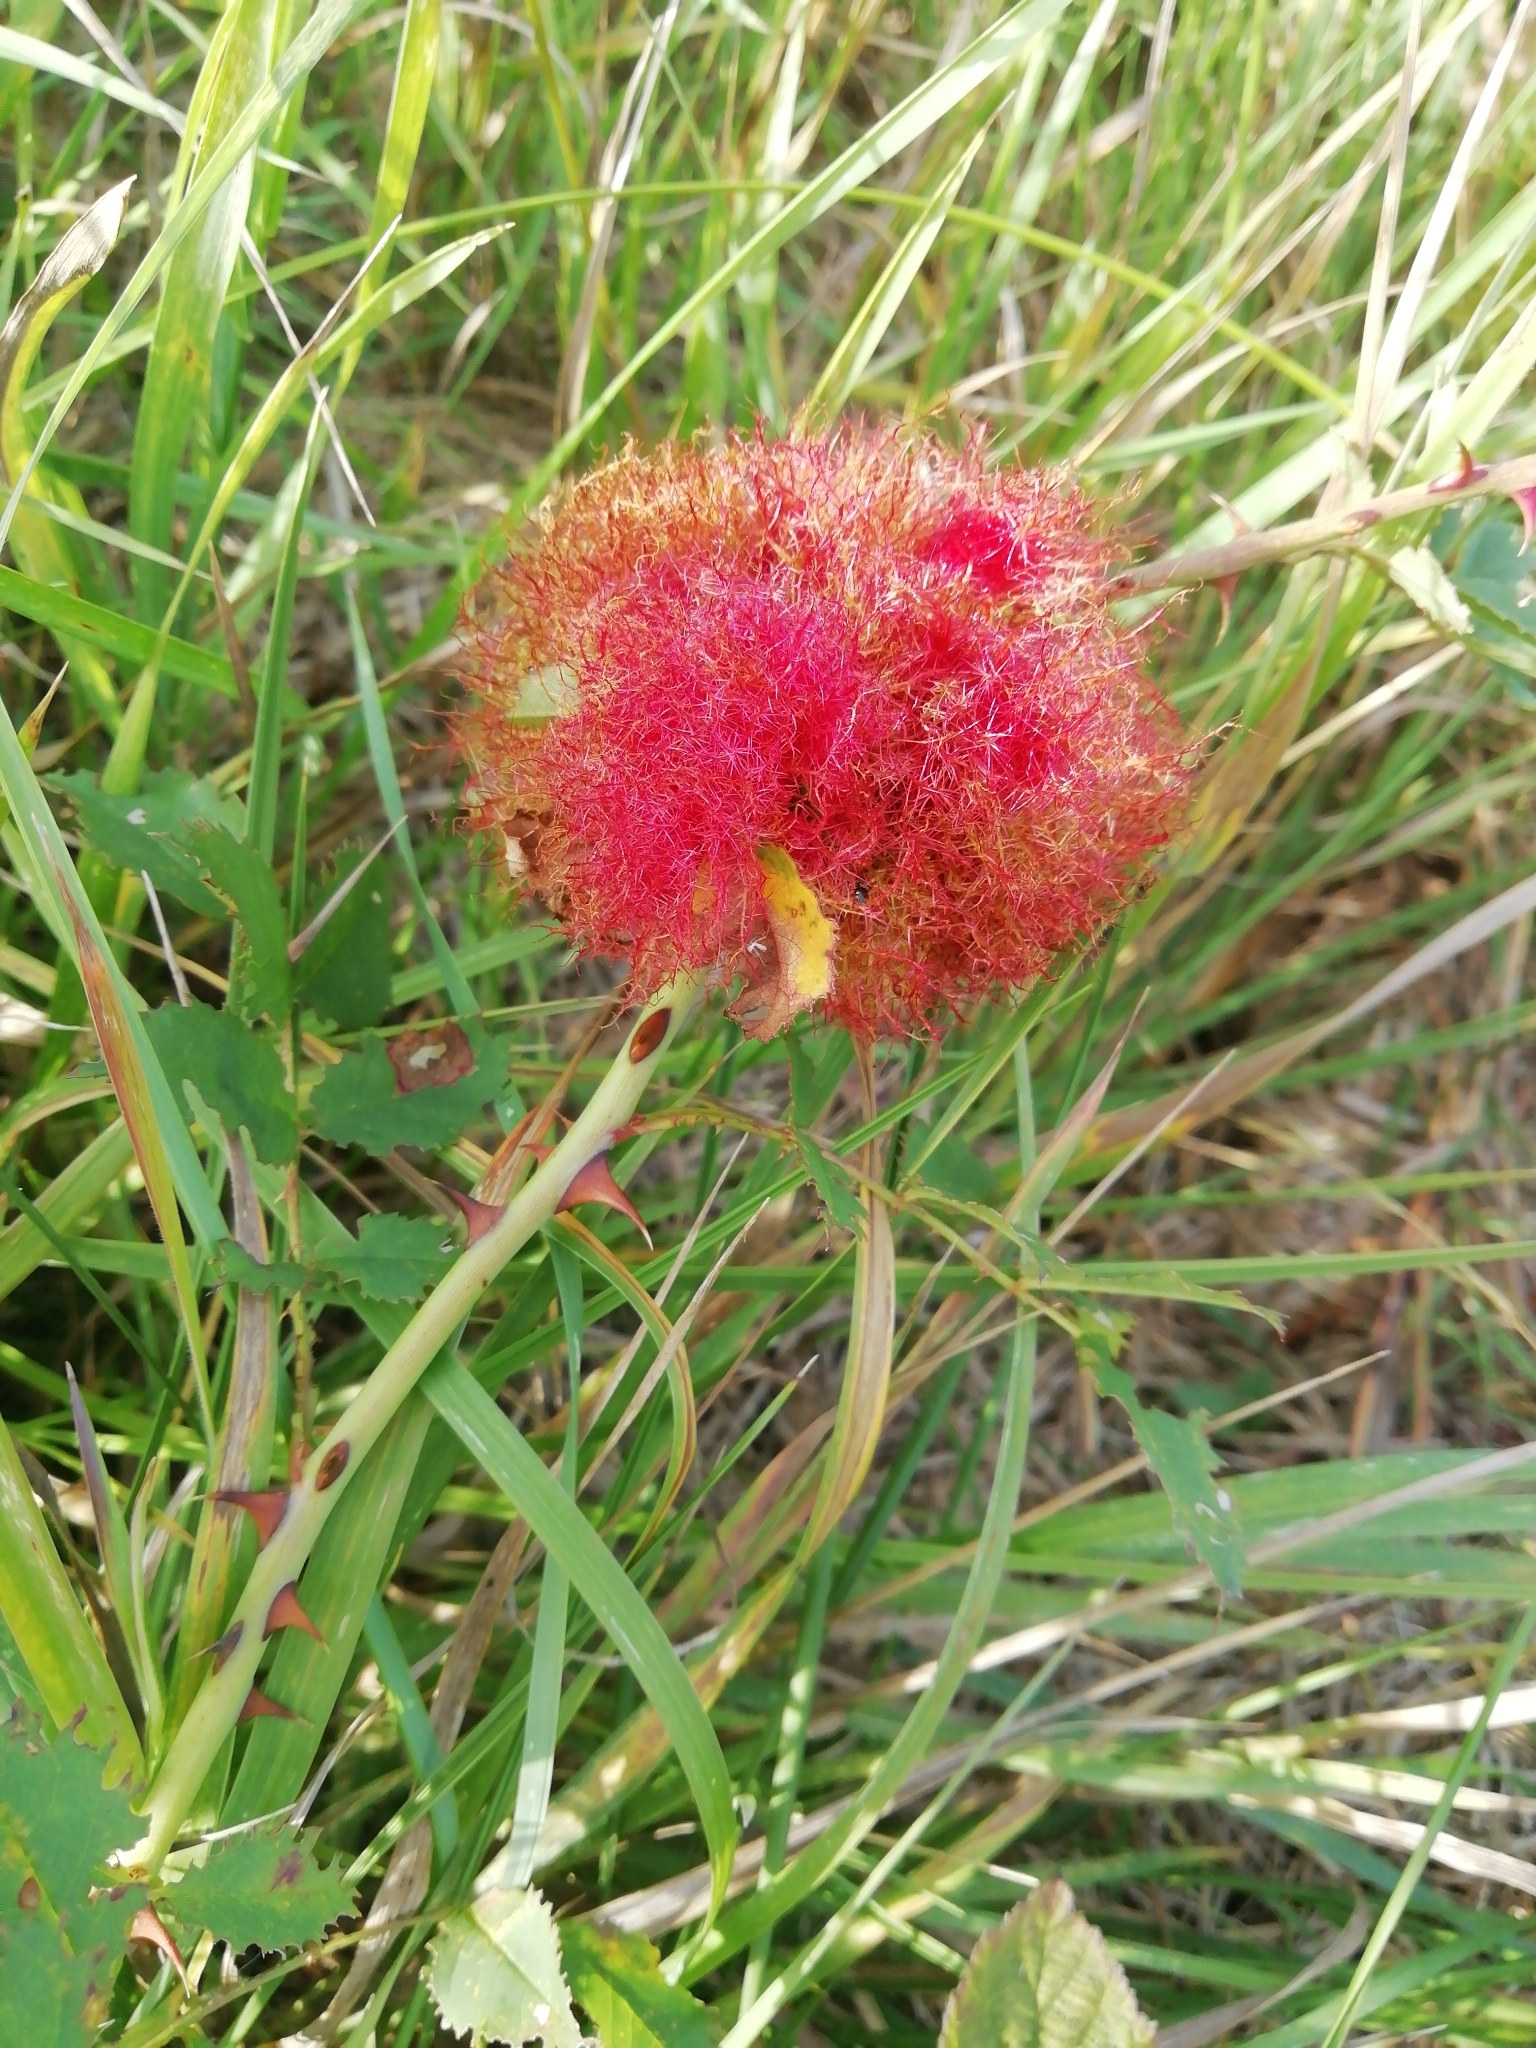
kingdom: Animalia
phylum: Arthropoda
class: Insecta
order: Hymenoptera
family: Cynipidae
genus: Diplolepis
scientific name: Diplolepis rosae
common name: Bedeguar gall
